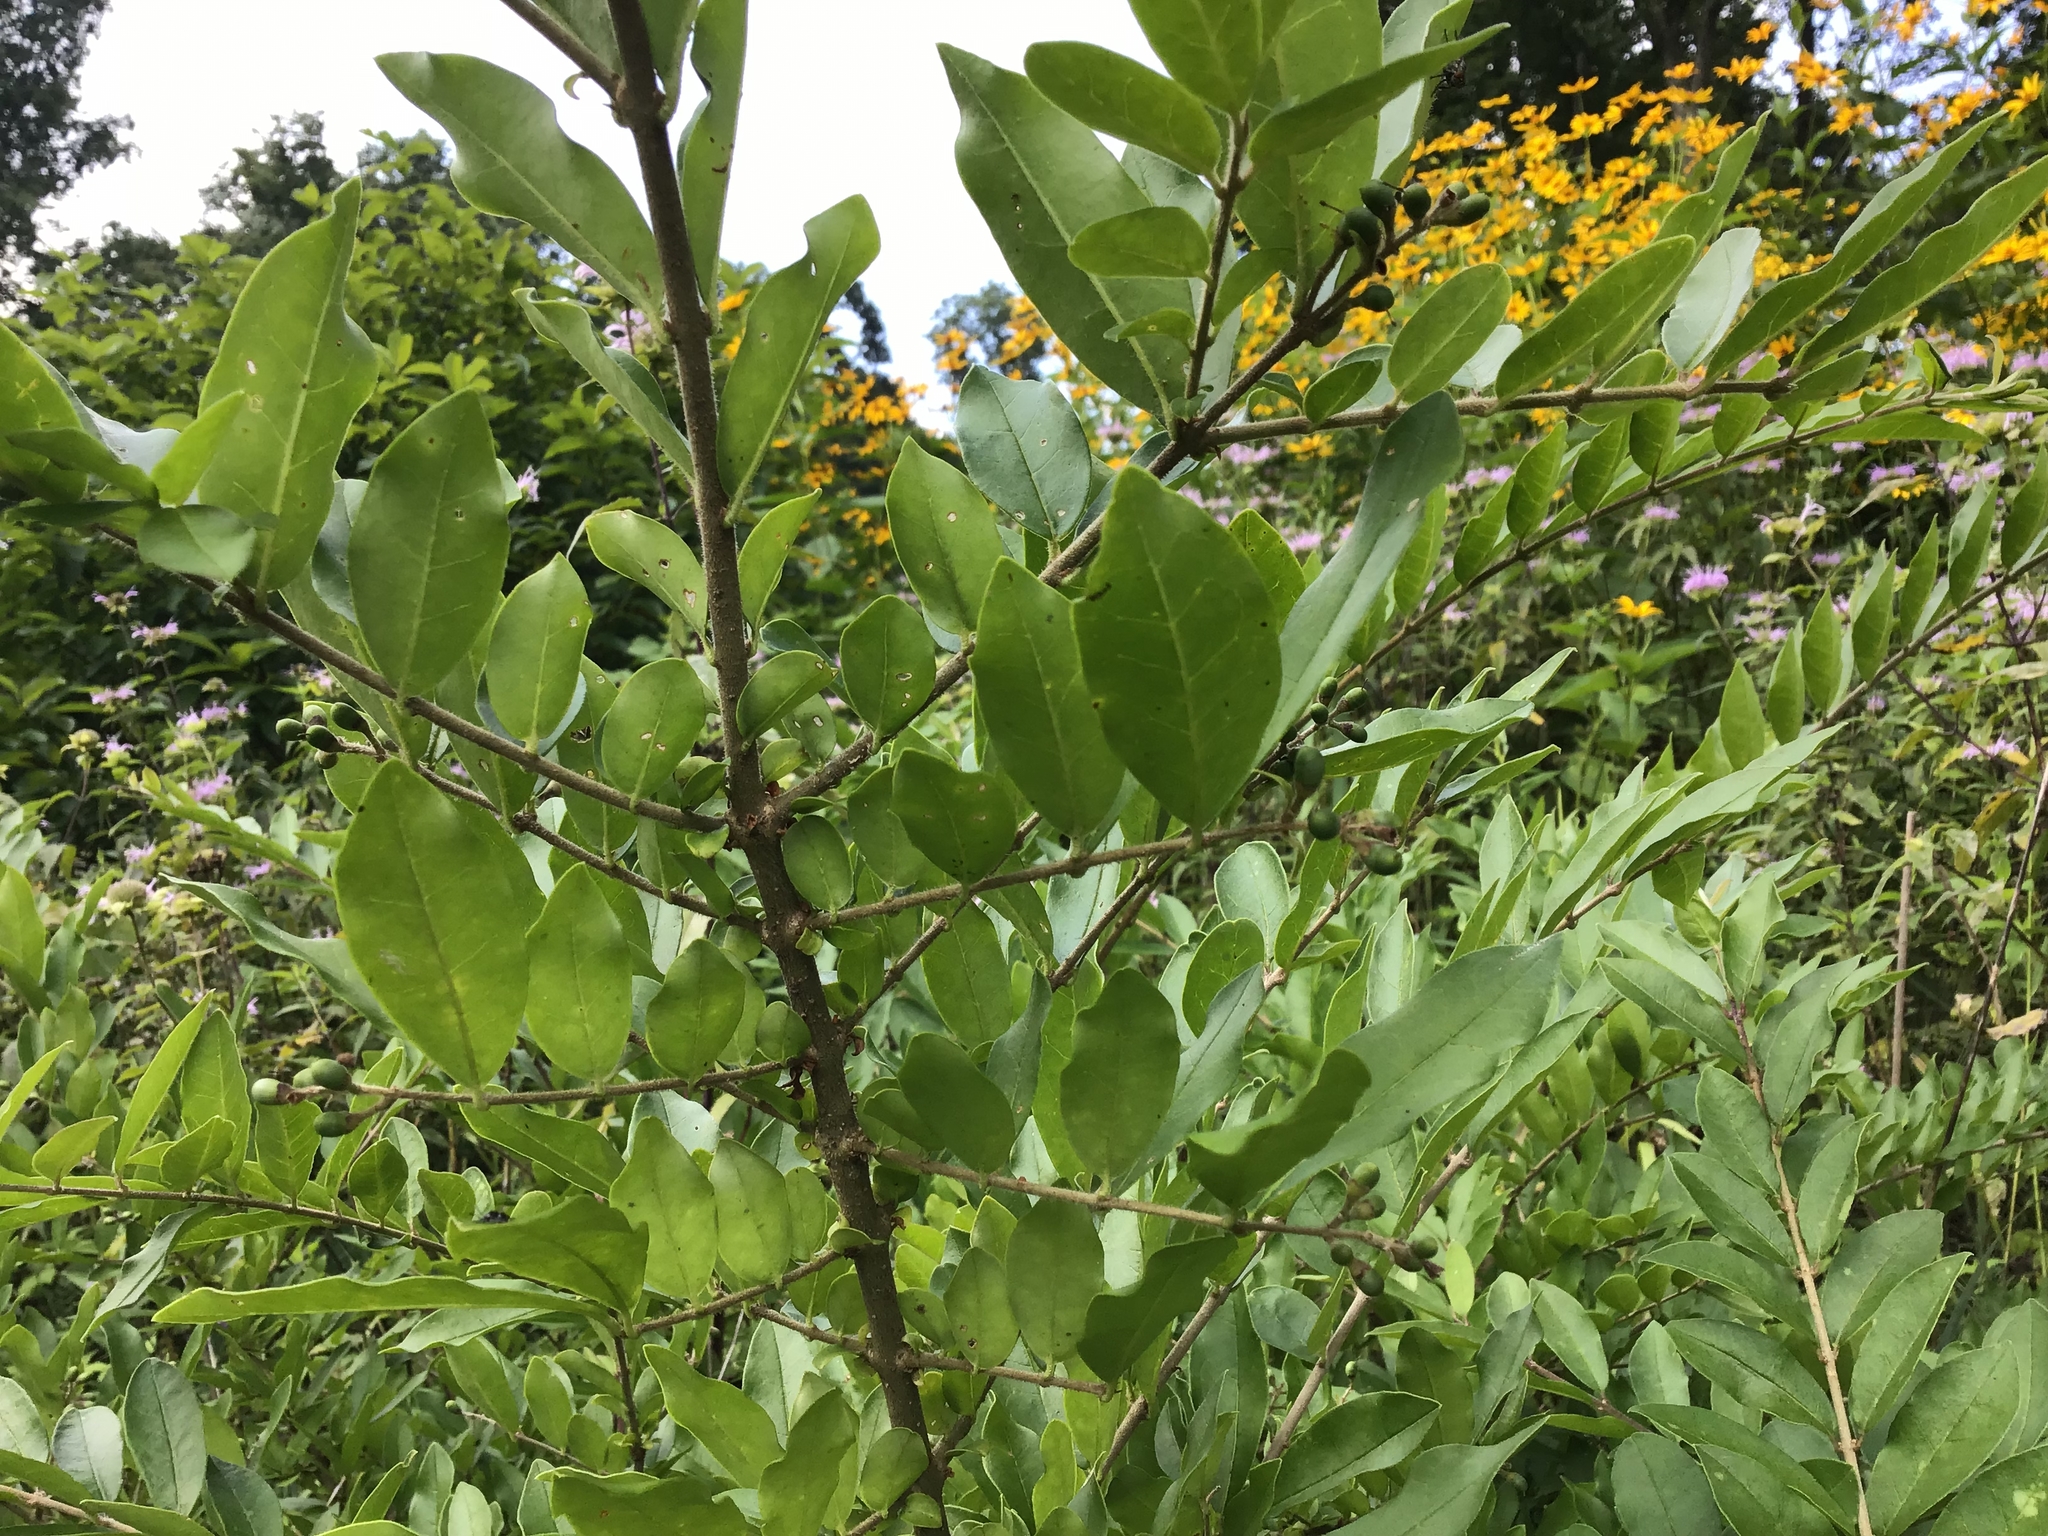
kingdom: Plantae
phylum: Tracheophyta
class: Magnoliopsida
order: Lamiales
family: Oleaceae
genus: Ligustrum
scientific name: Ligustrum obtusifolium
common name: Border privet
